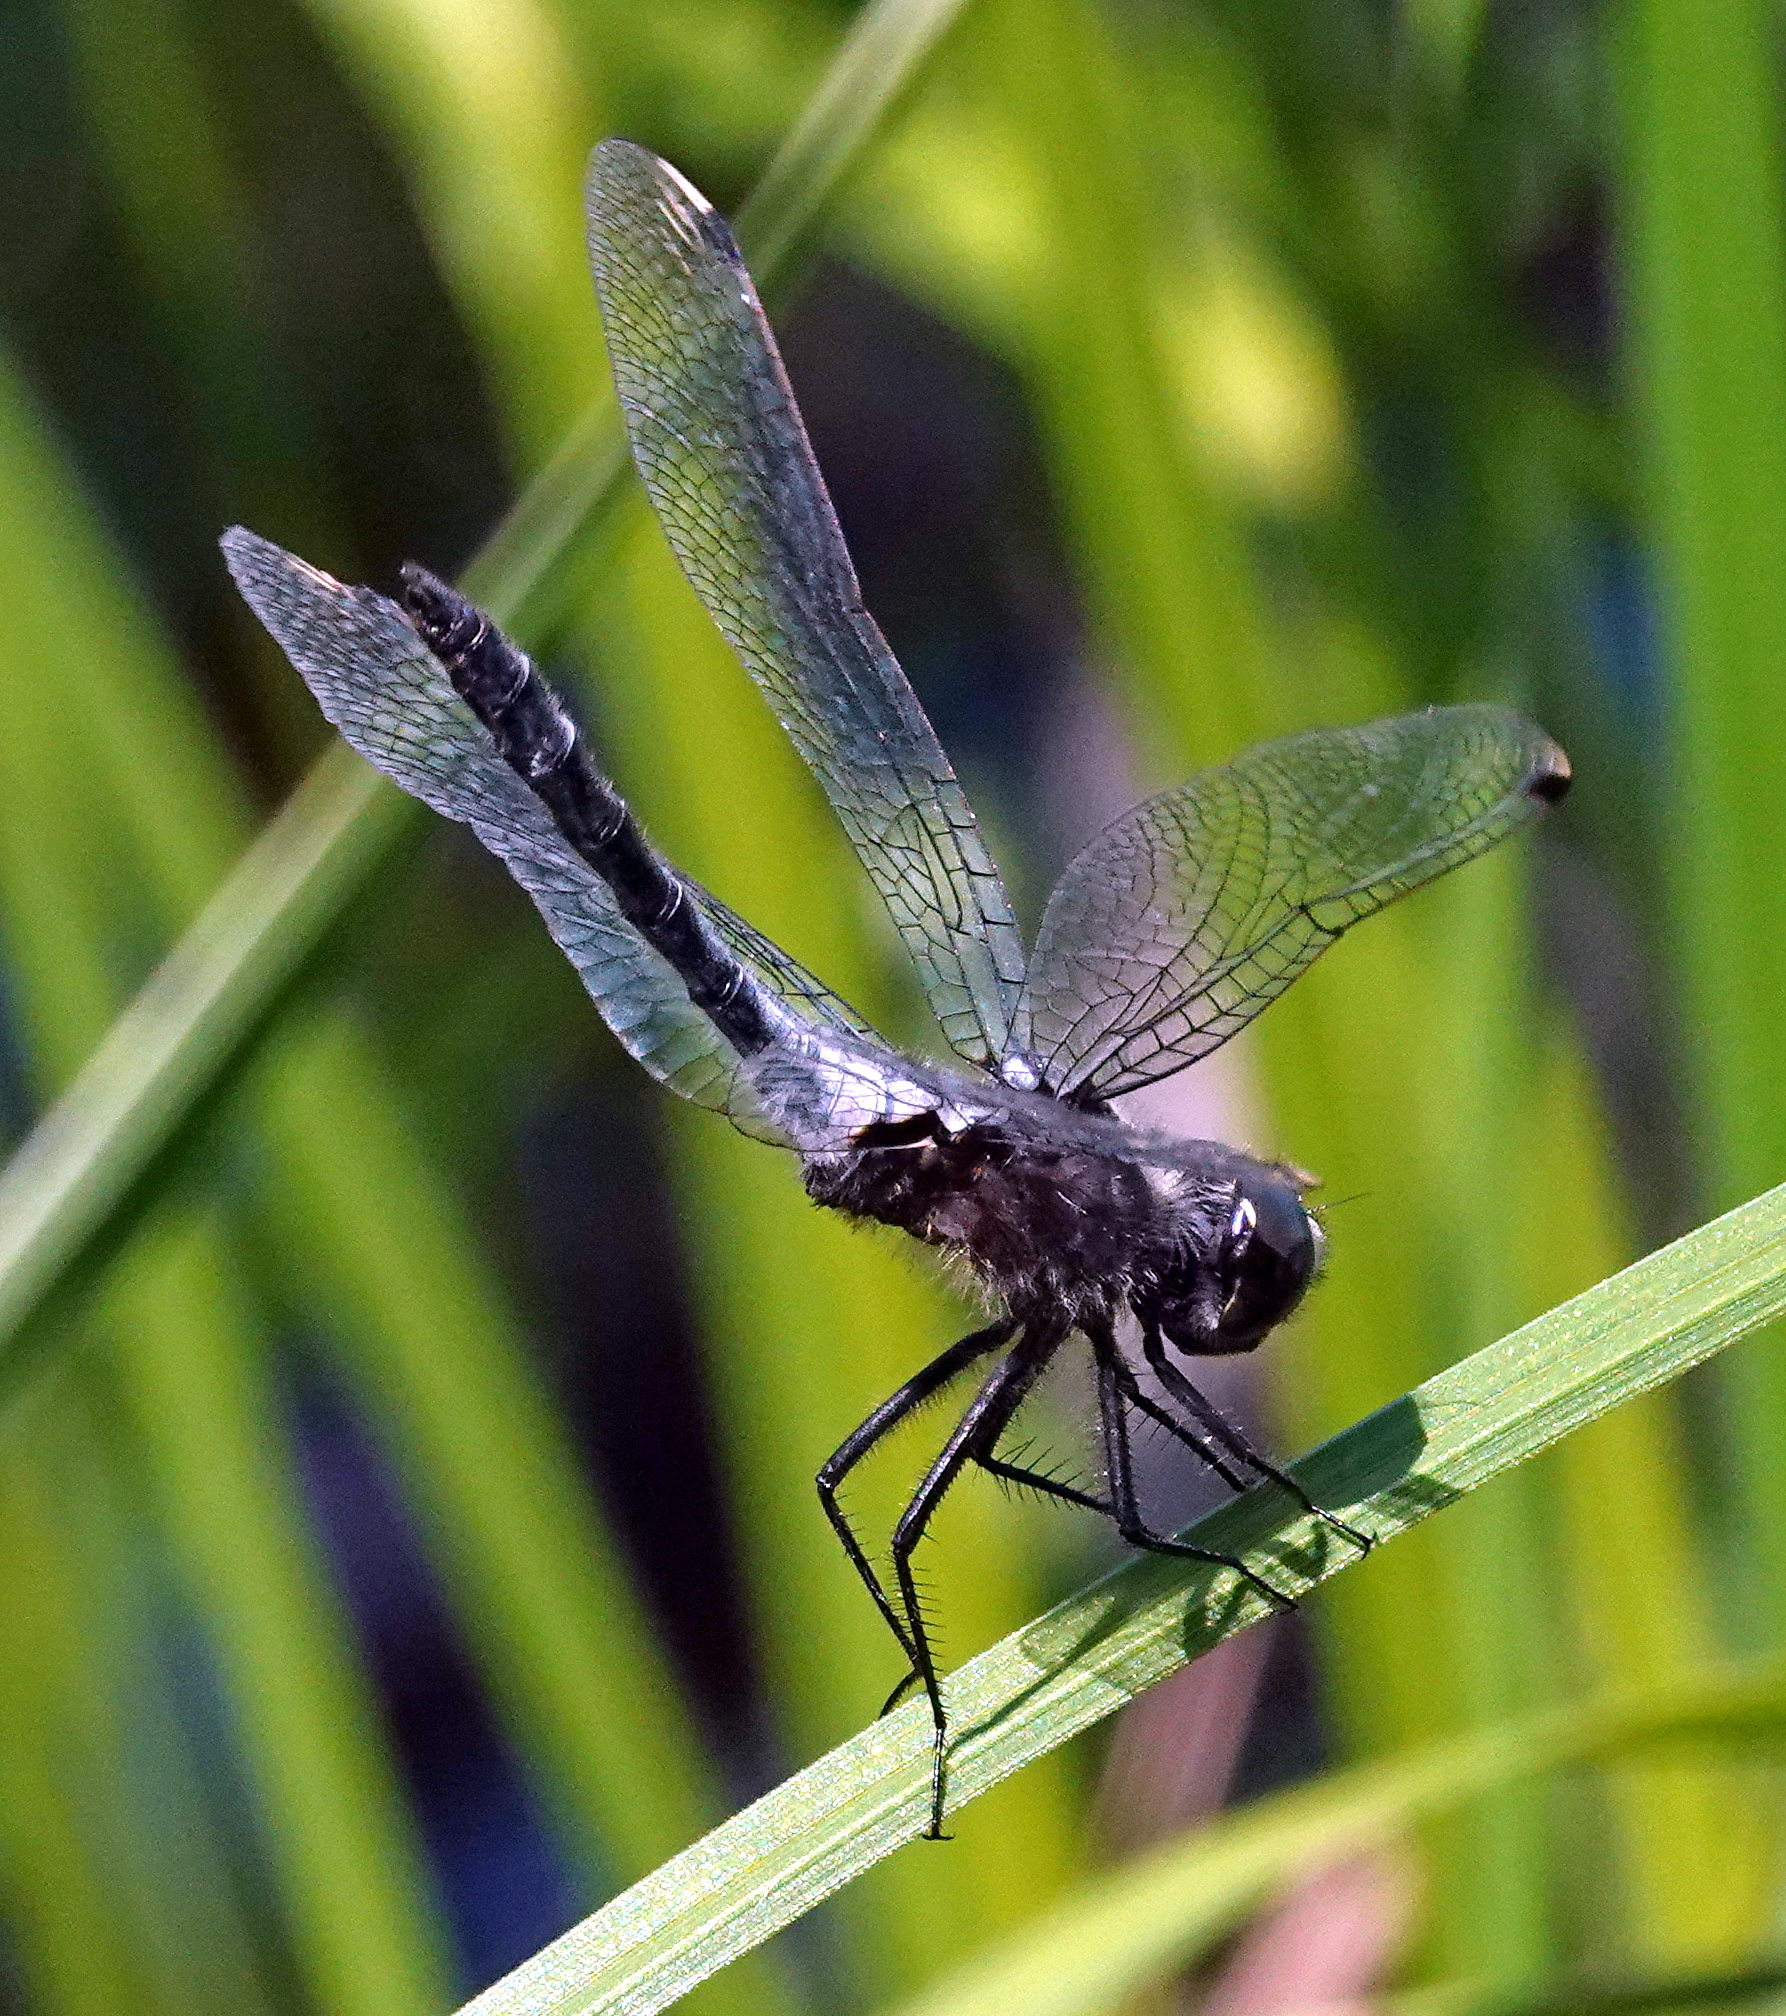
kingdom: Animalia
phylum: Arthropoda
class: Insecta
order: Odonata
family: Libellulidae
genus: Leucorrhinia
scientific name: Leucorrhinia frigida
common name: Frosted whiteface
